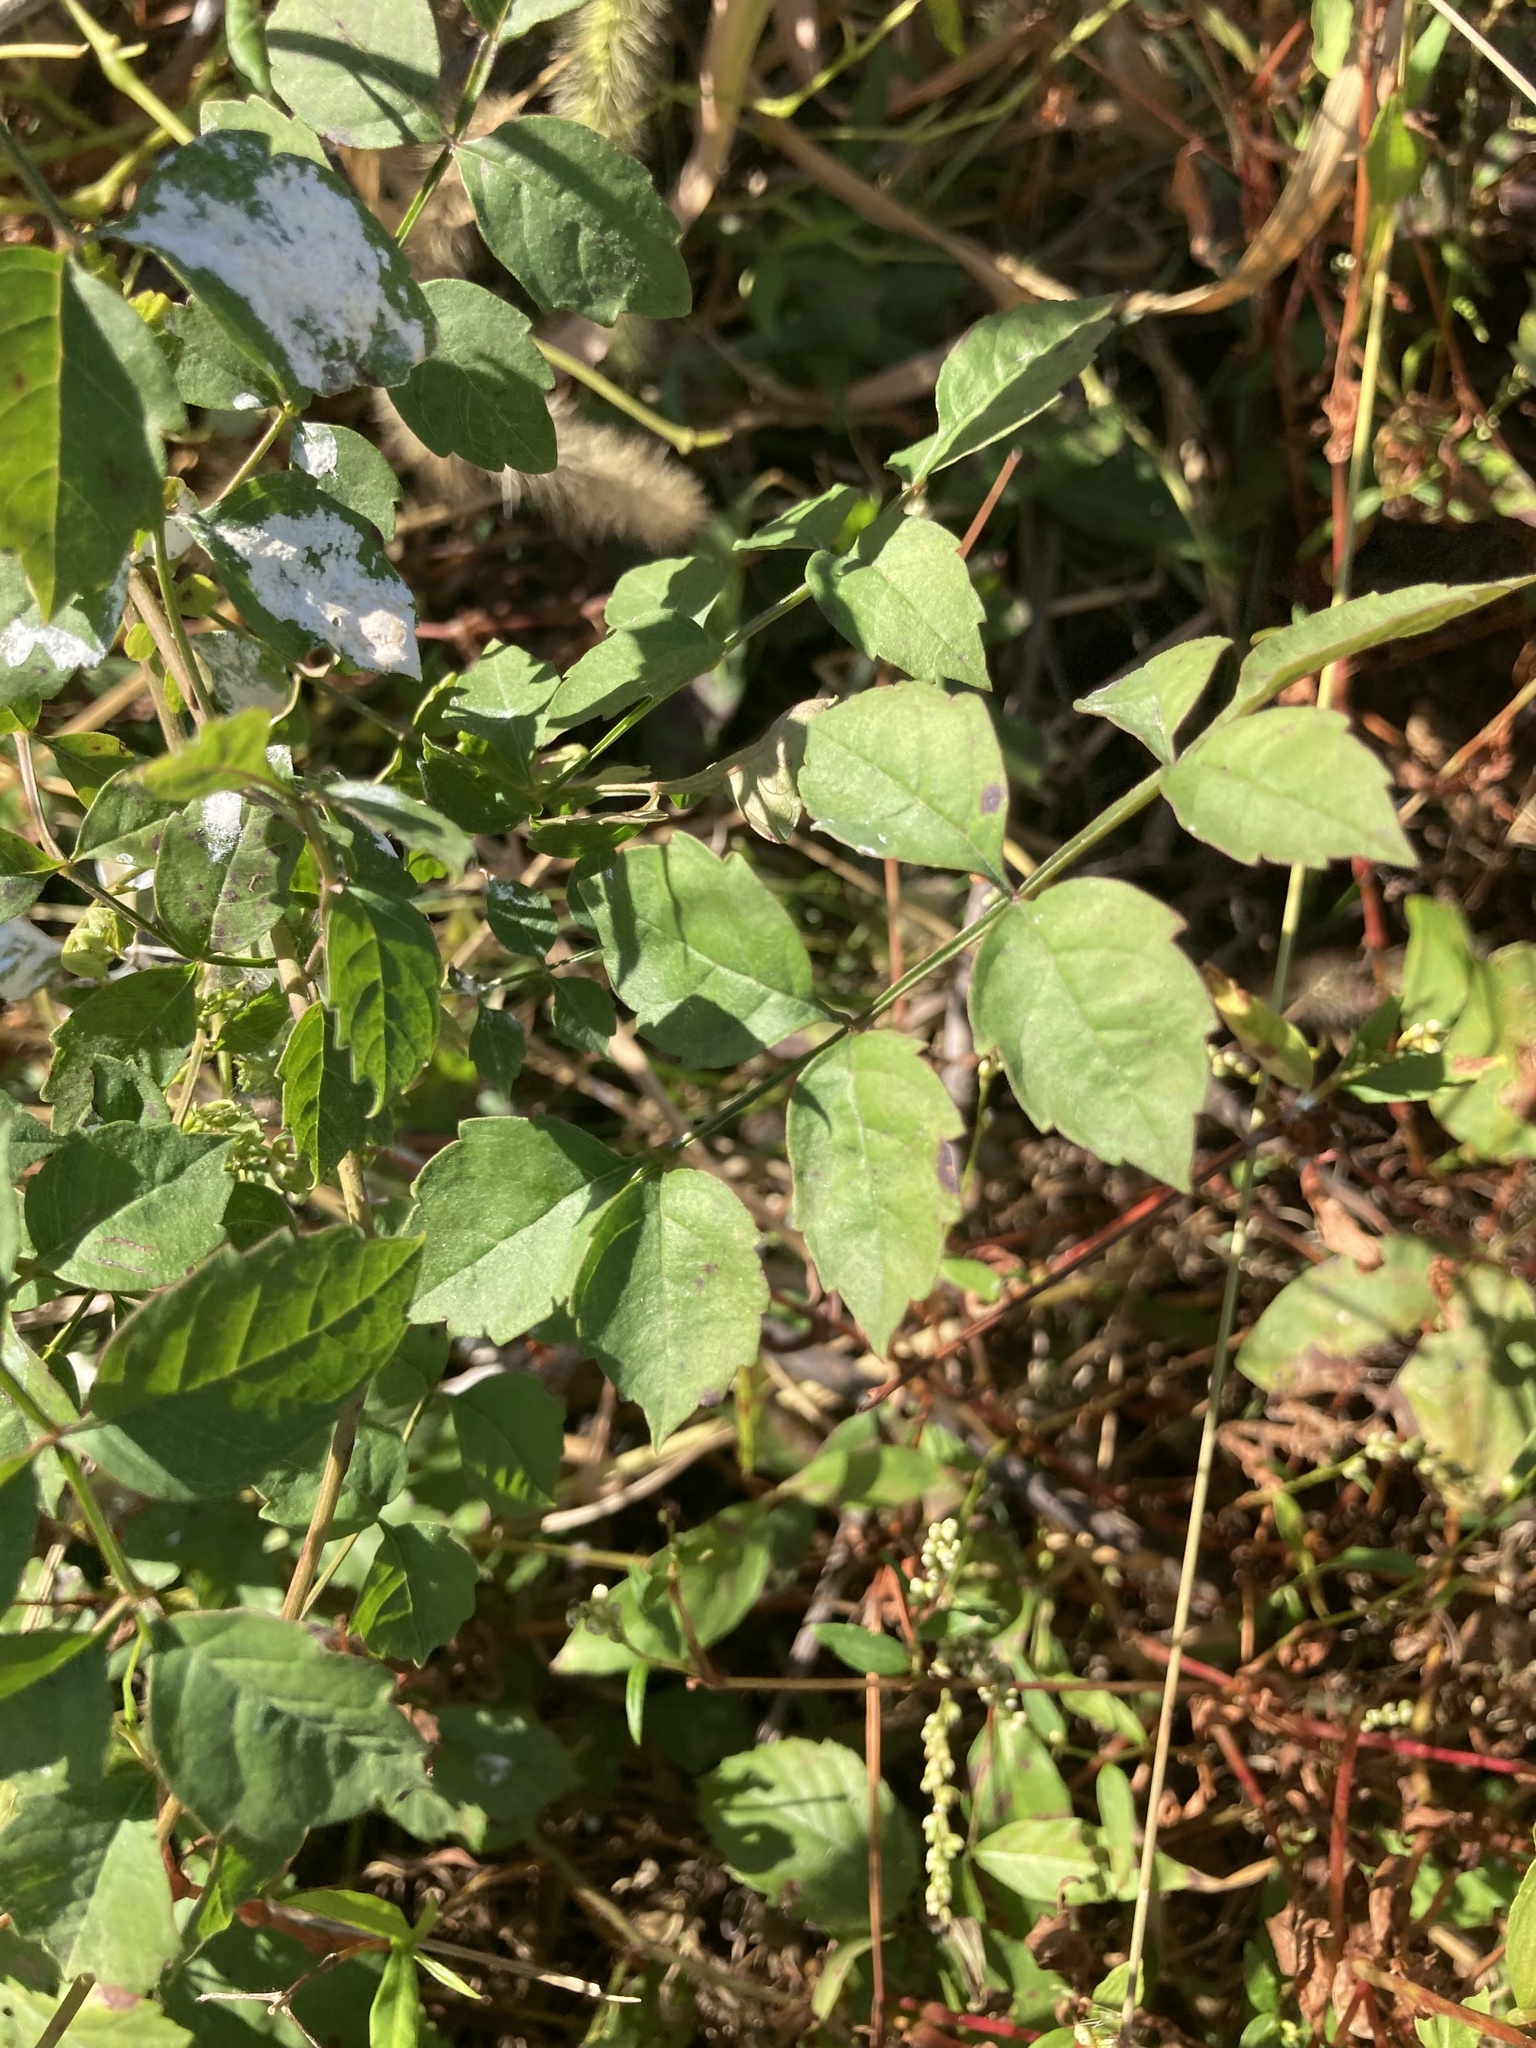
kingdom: Plantae
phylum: Tracheophyta
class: Magnoliopsida
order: Lamiales
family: Bignoniaceae
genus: Campsis
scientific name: Campsis radicans
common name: Trumpet-creeper
